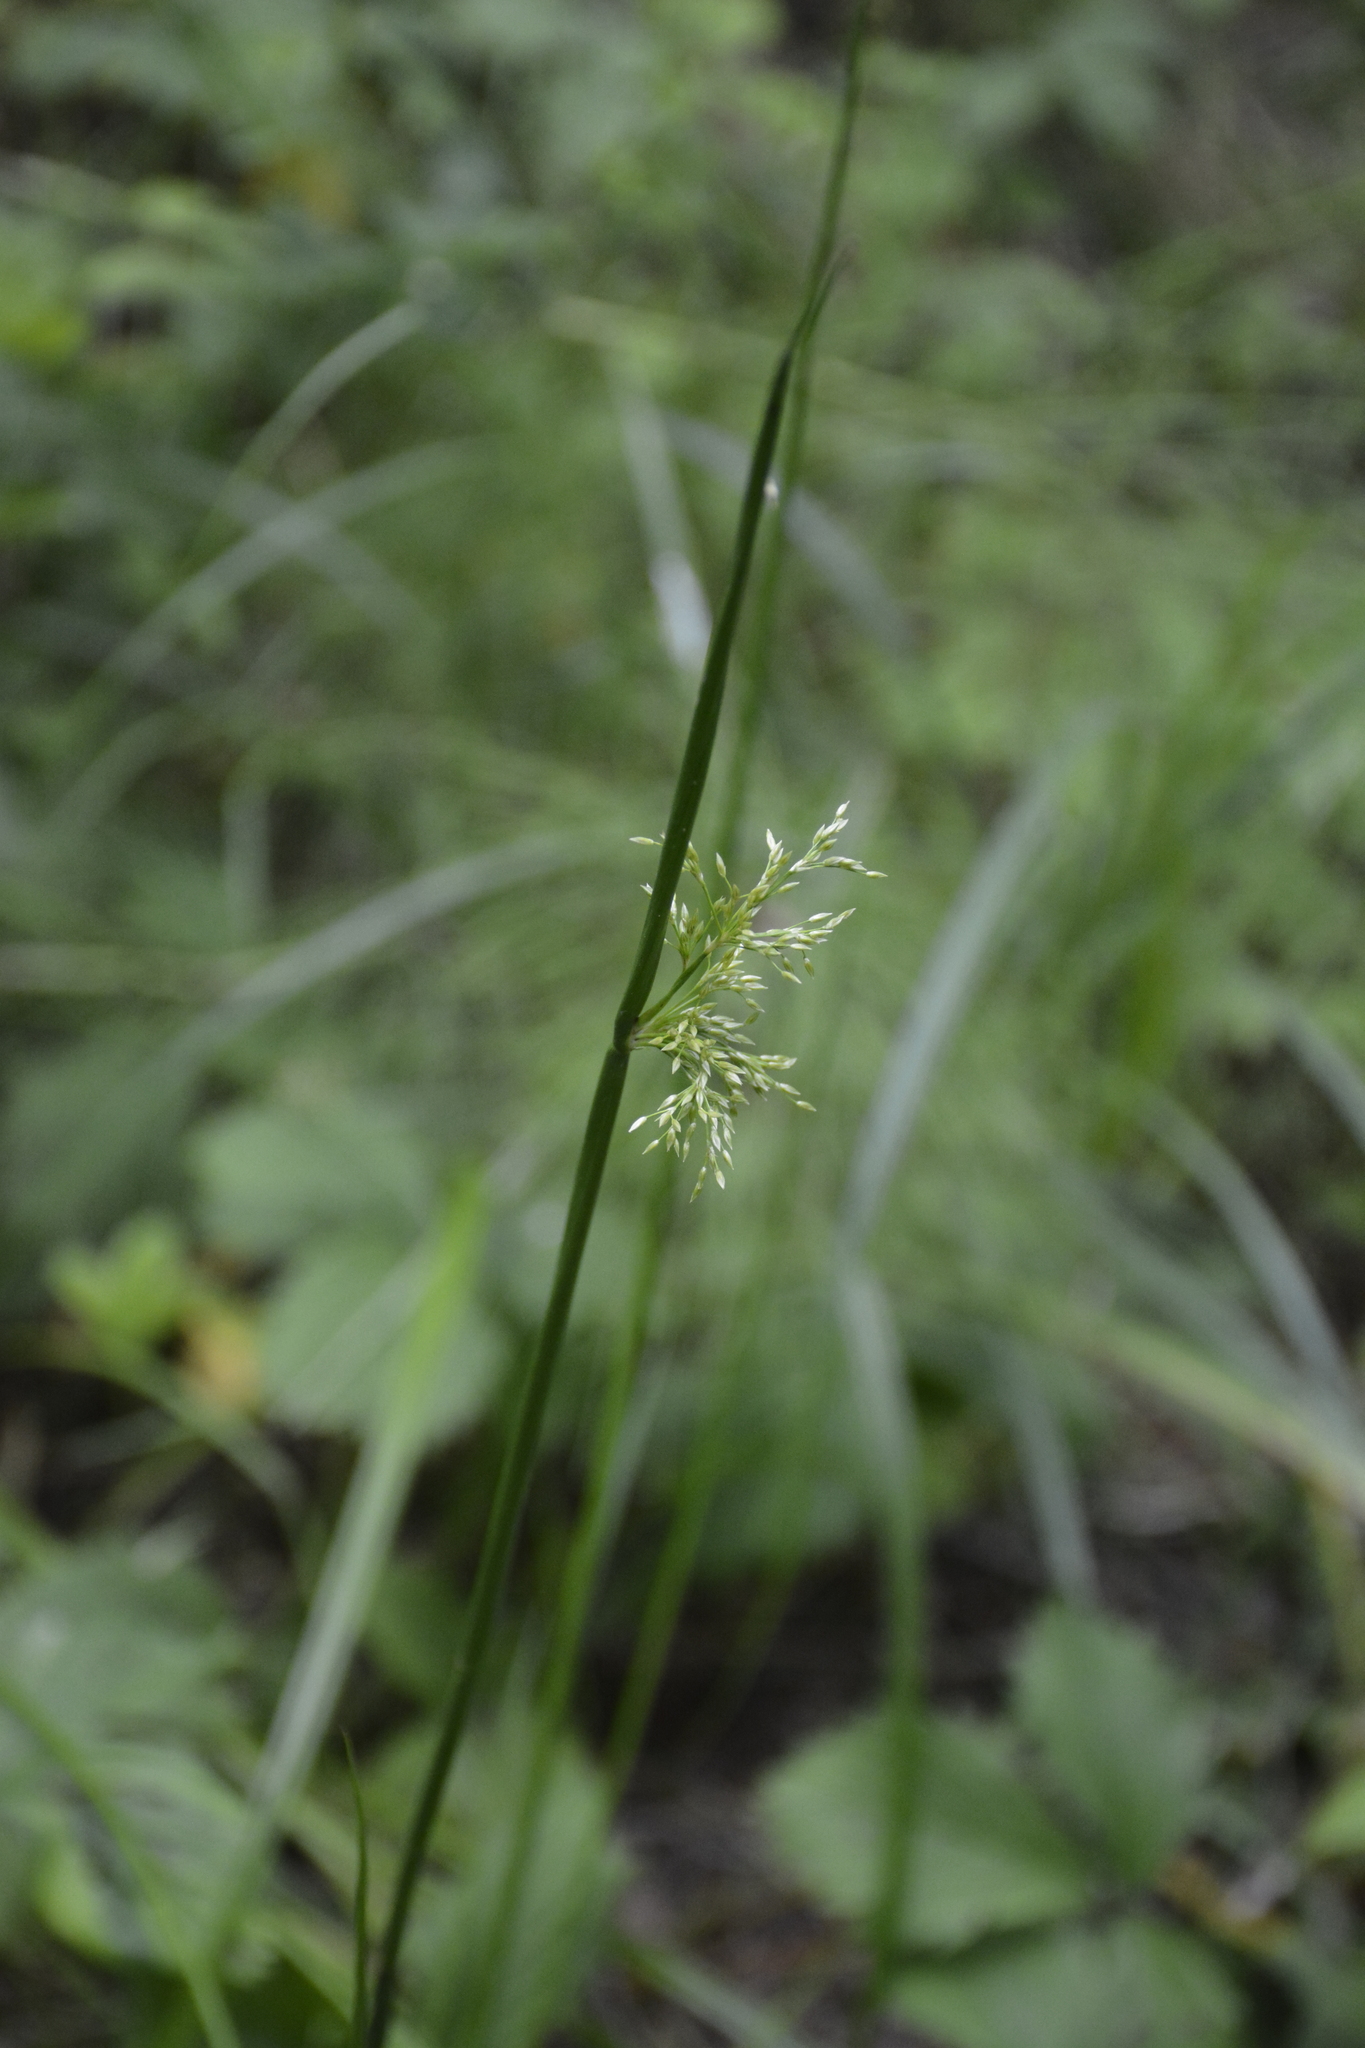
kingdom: Plantae
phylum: Tracheophyta
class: Liliopsida
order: Poales
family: Juncaceae
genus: Juncus
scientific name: Juncus effusus
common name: Soft rush
